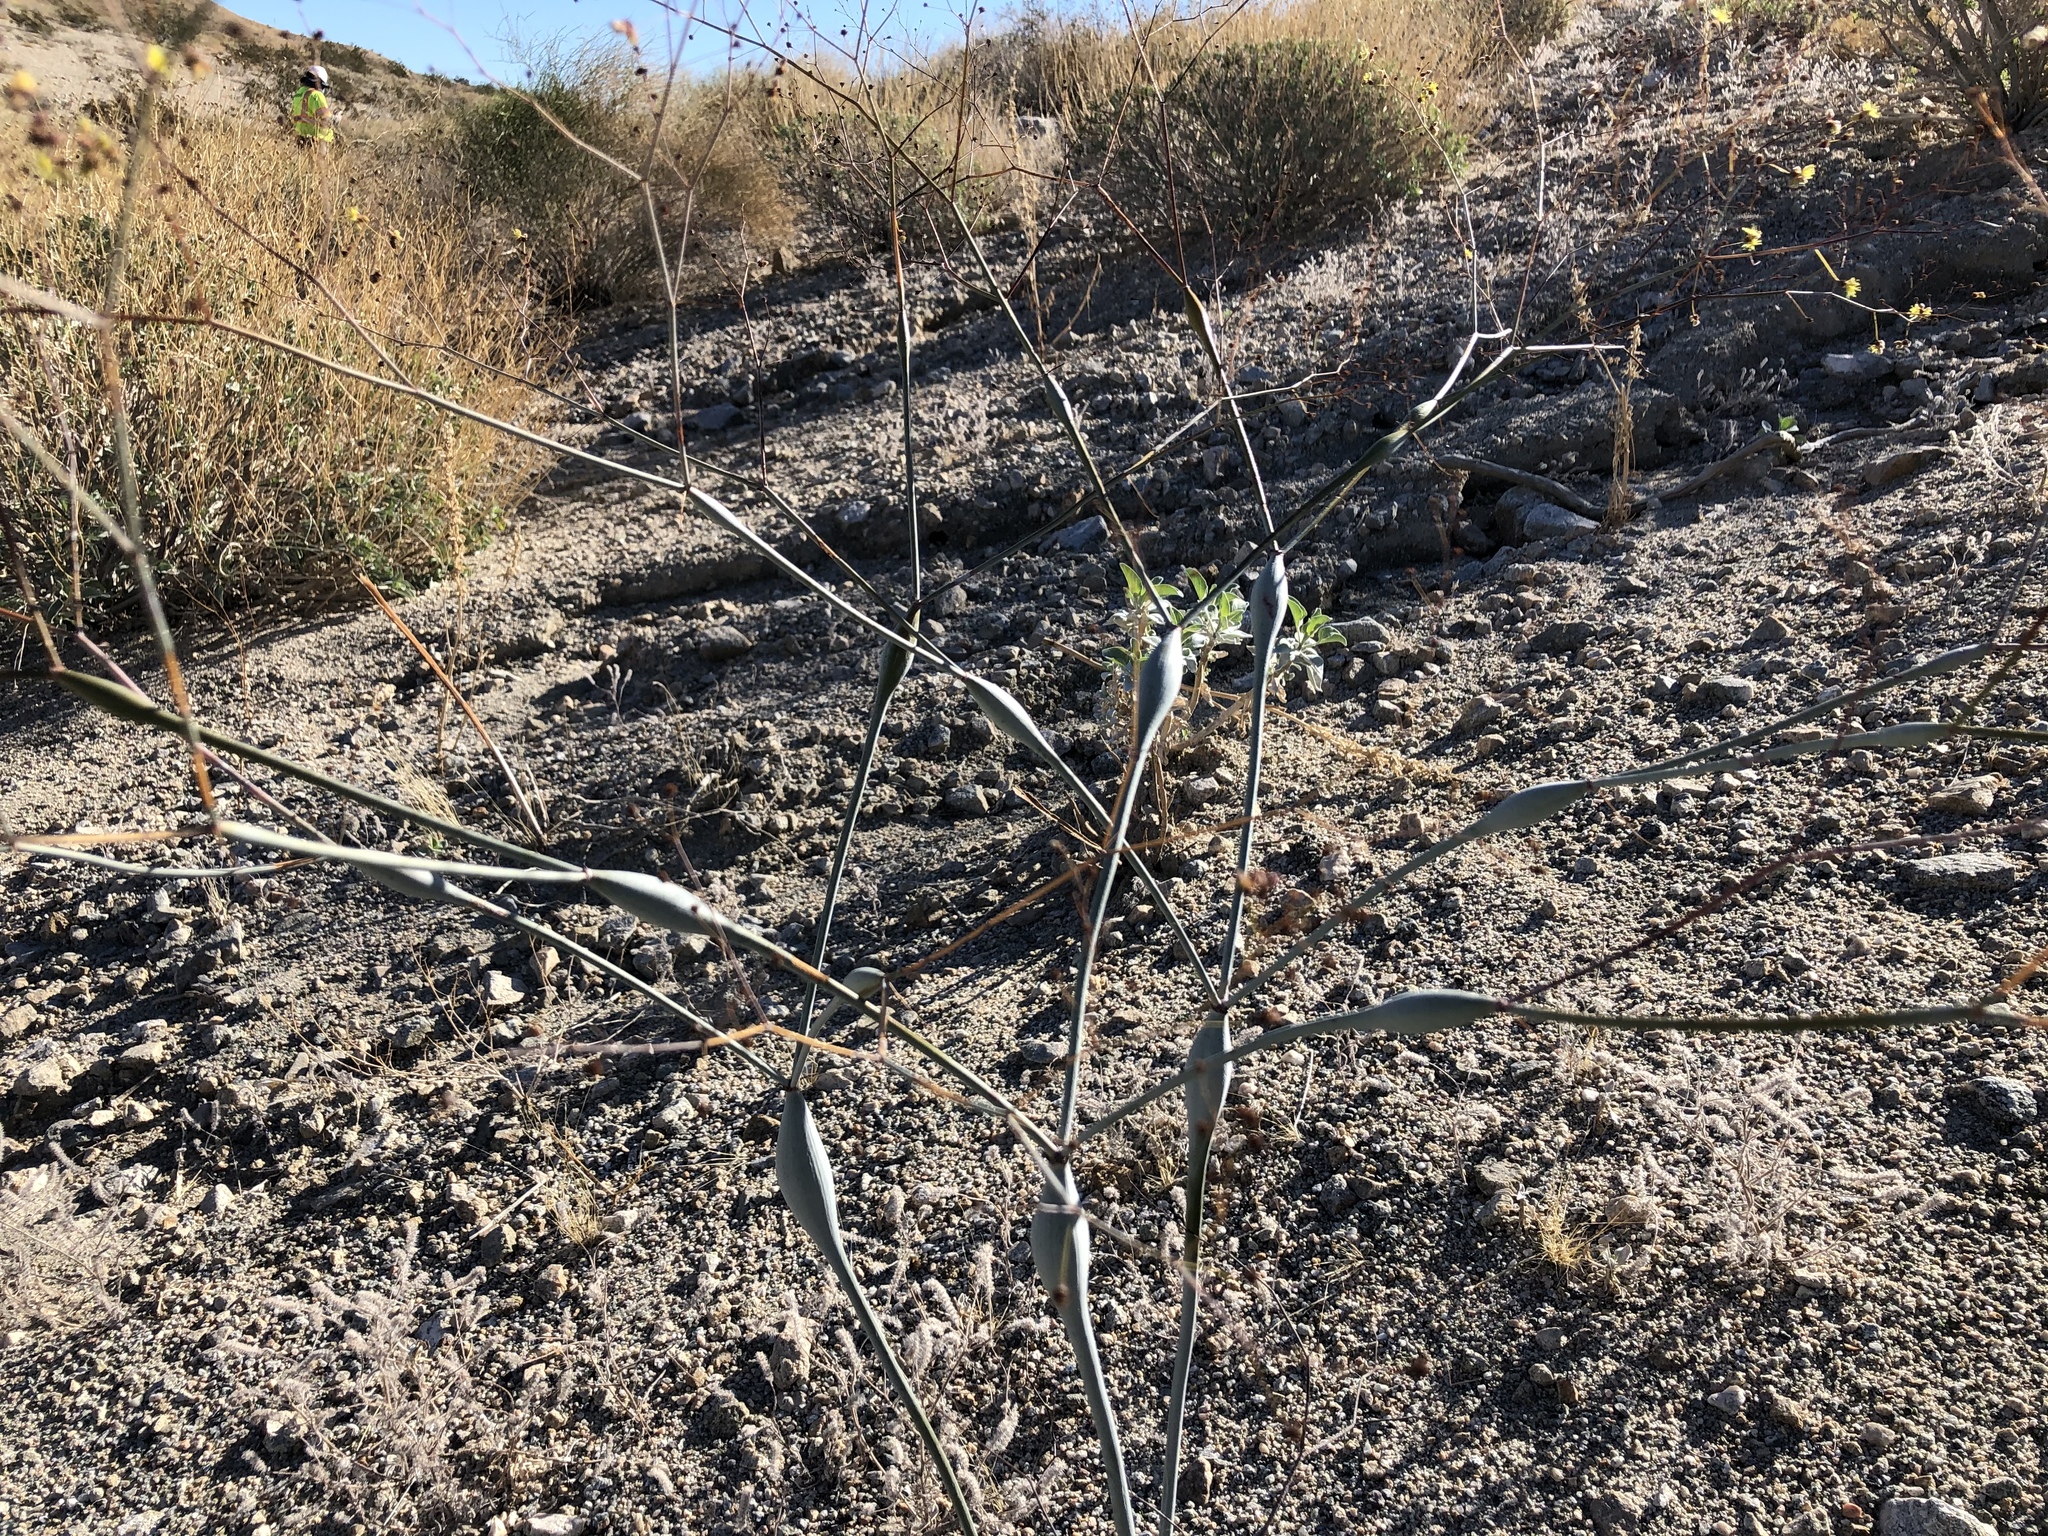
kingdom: Plantae
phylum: Tracheophyta
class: Magnoliopsida
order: Caryophyllales
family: Polygonaceae
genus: Eriogonum
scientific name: Eriogonum inflatum
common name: Desert trumpet
